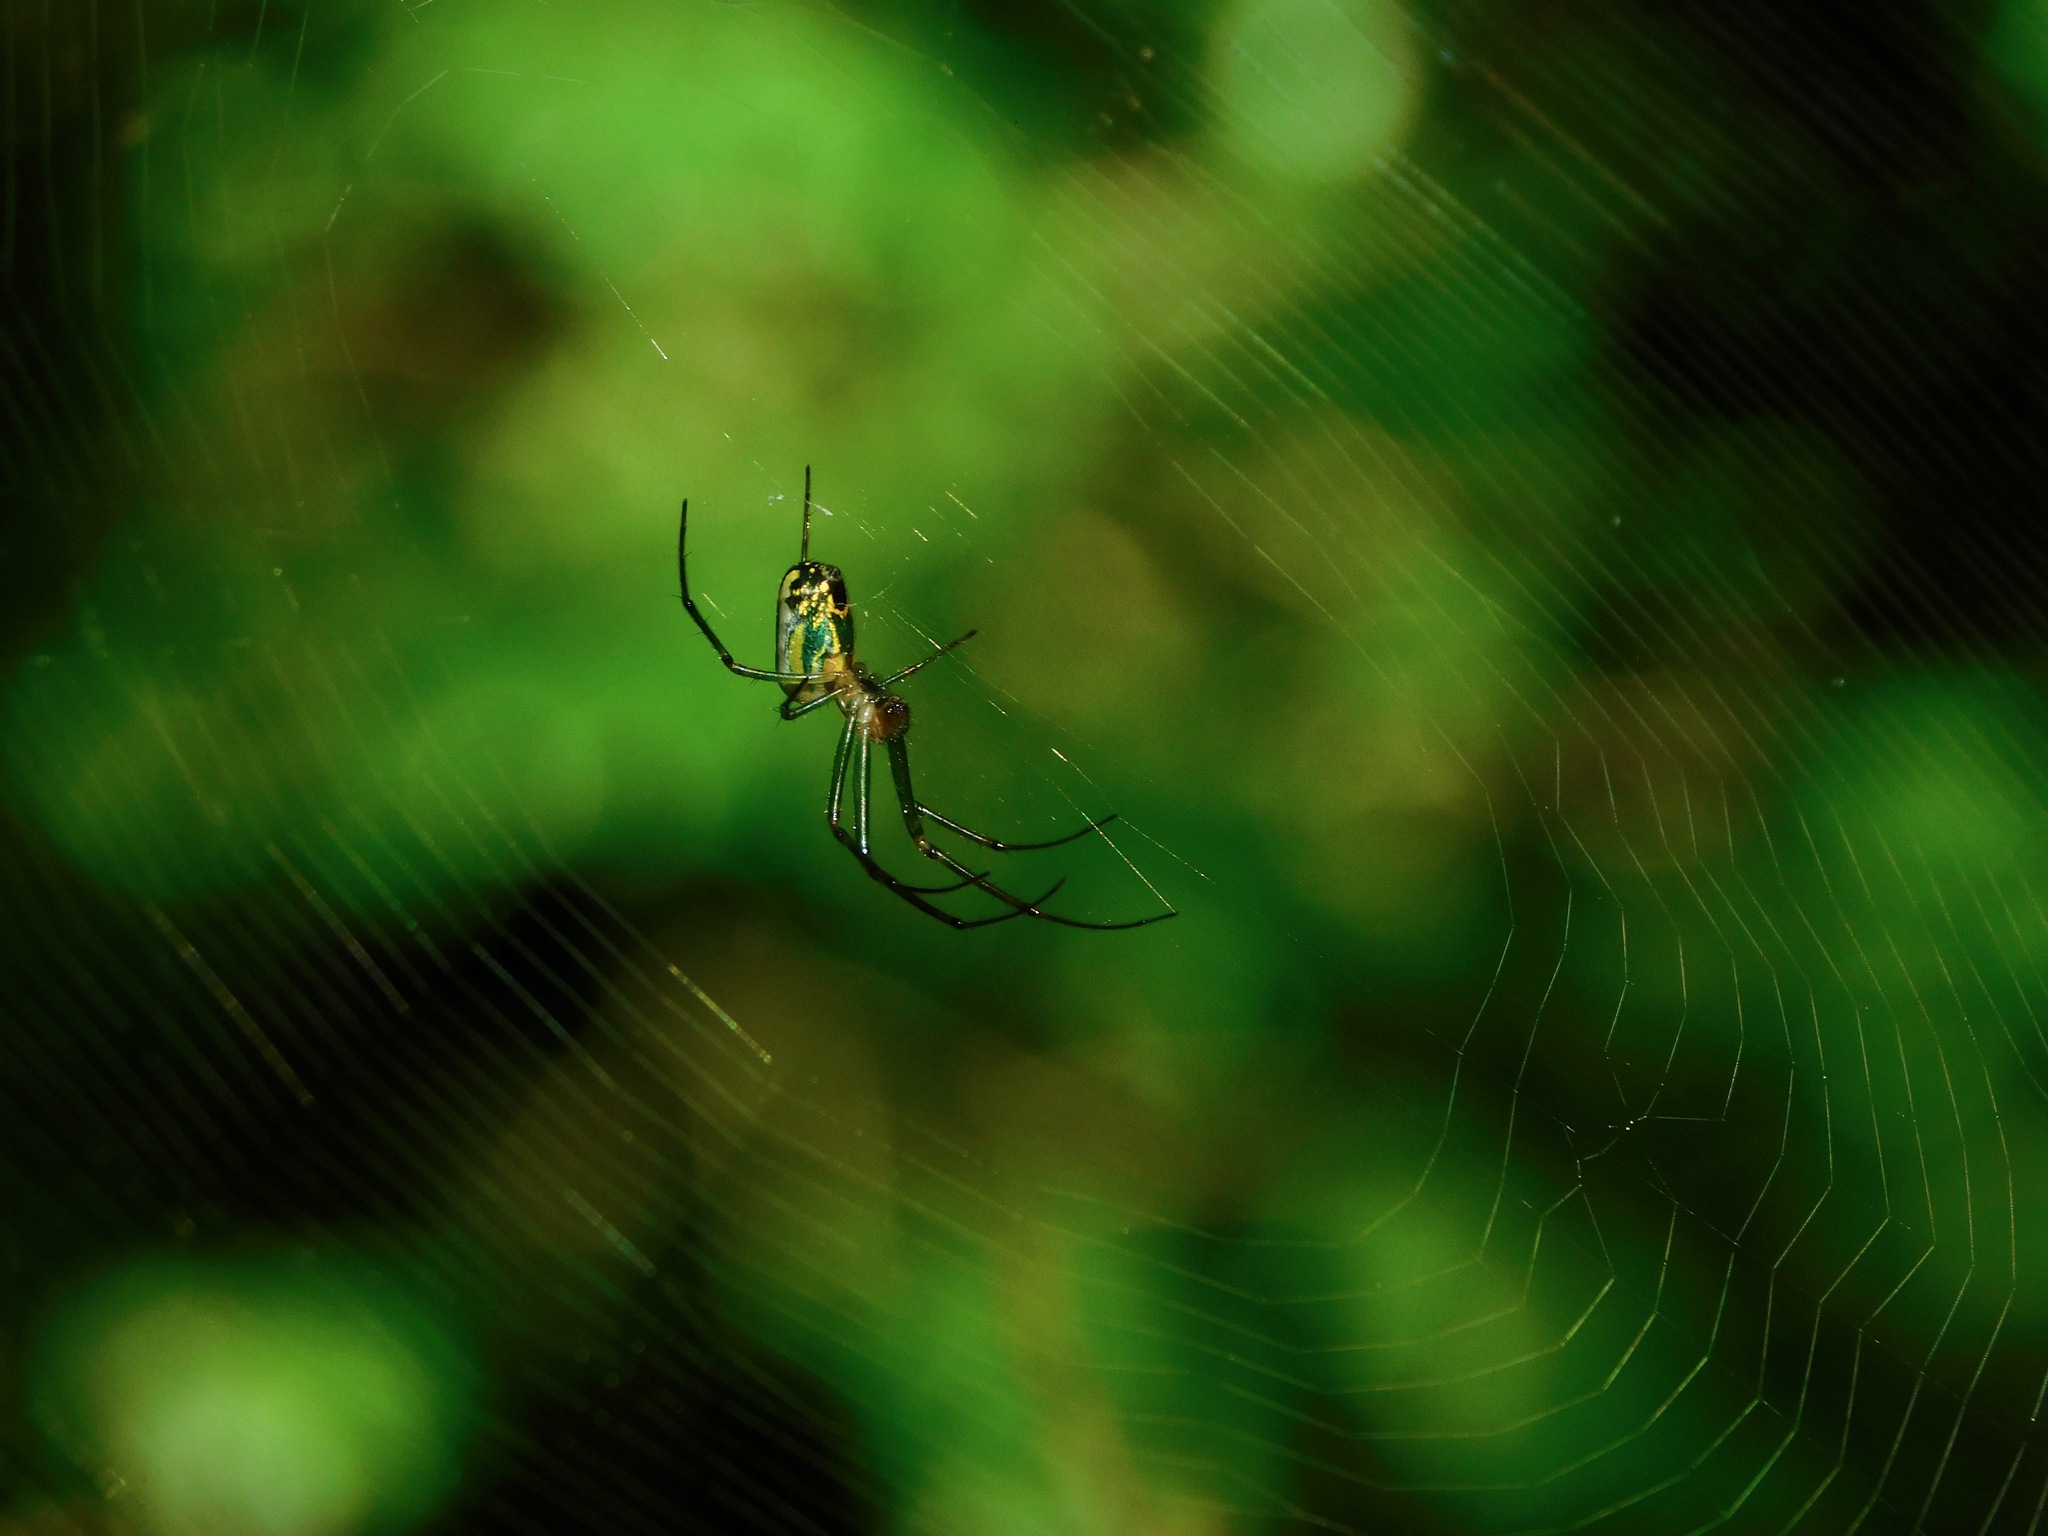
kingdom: Animalia
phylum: Arthropoda
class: Arachnida
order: Araneae
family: Tetragnathidae
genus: Leucauge
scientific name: Leucauge venusta
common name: Longjawed orb weavers
